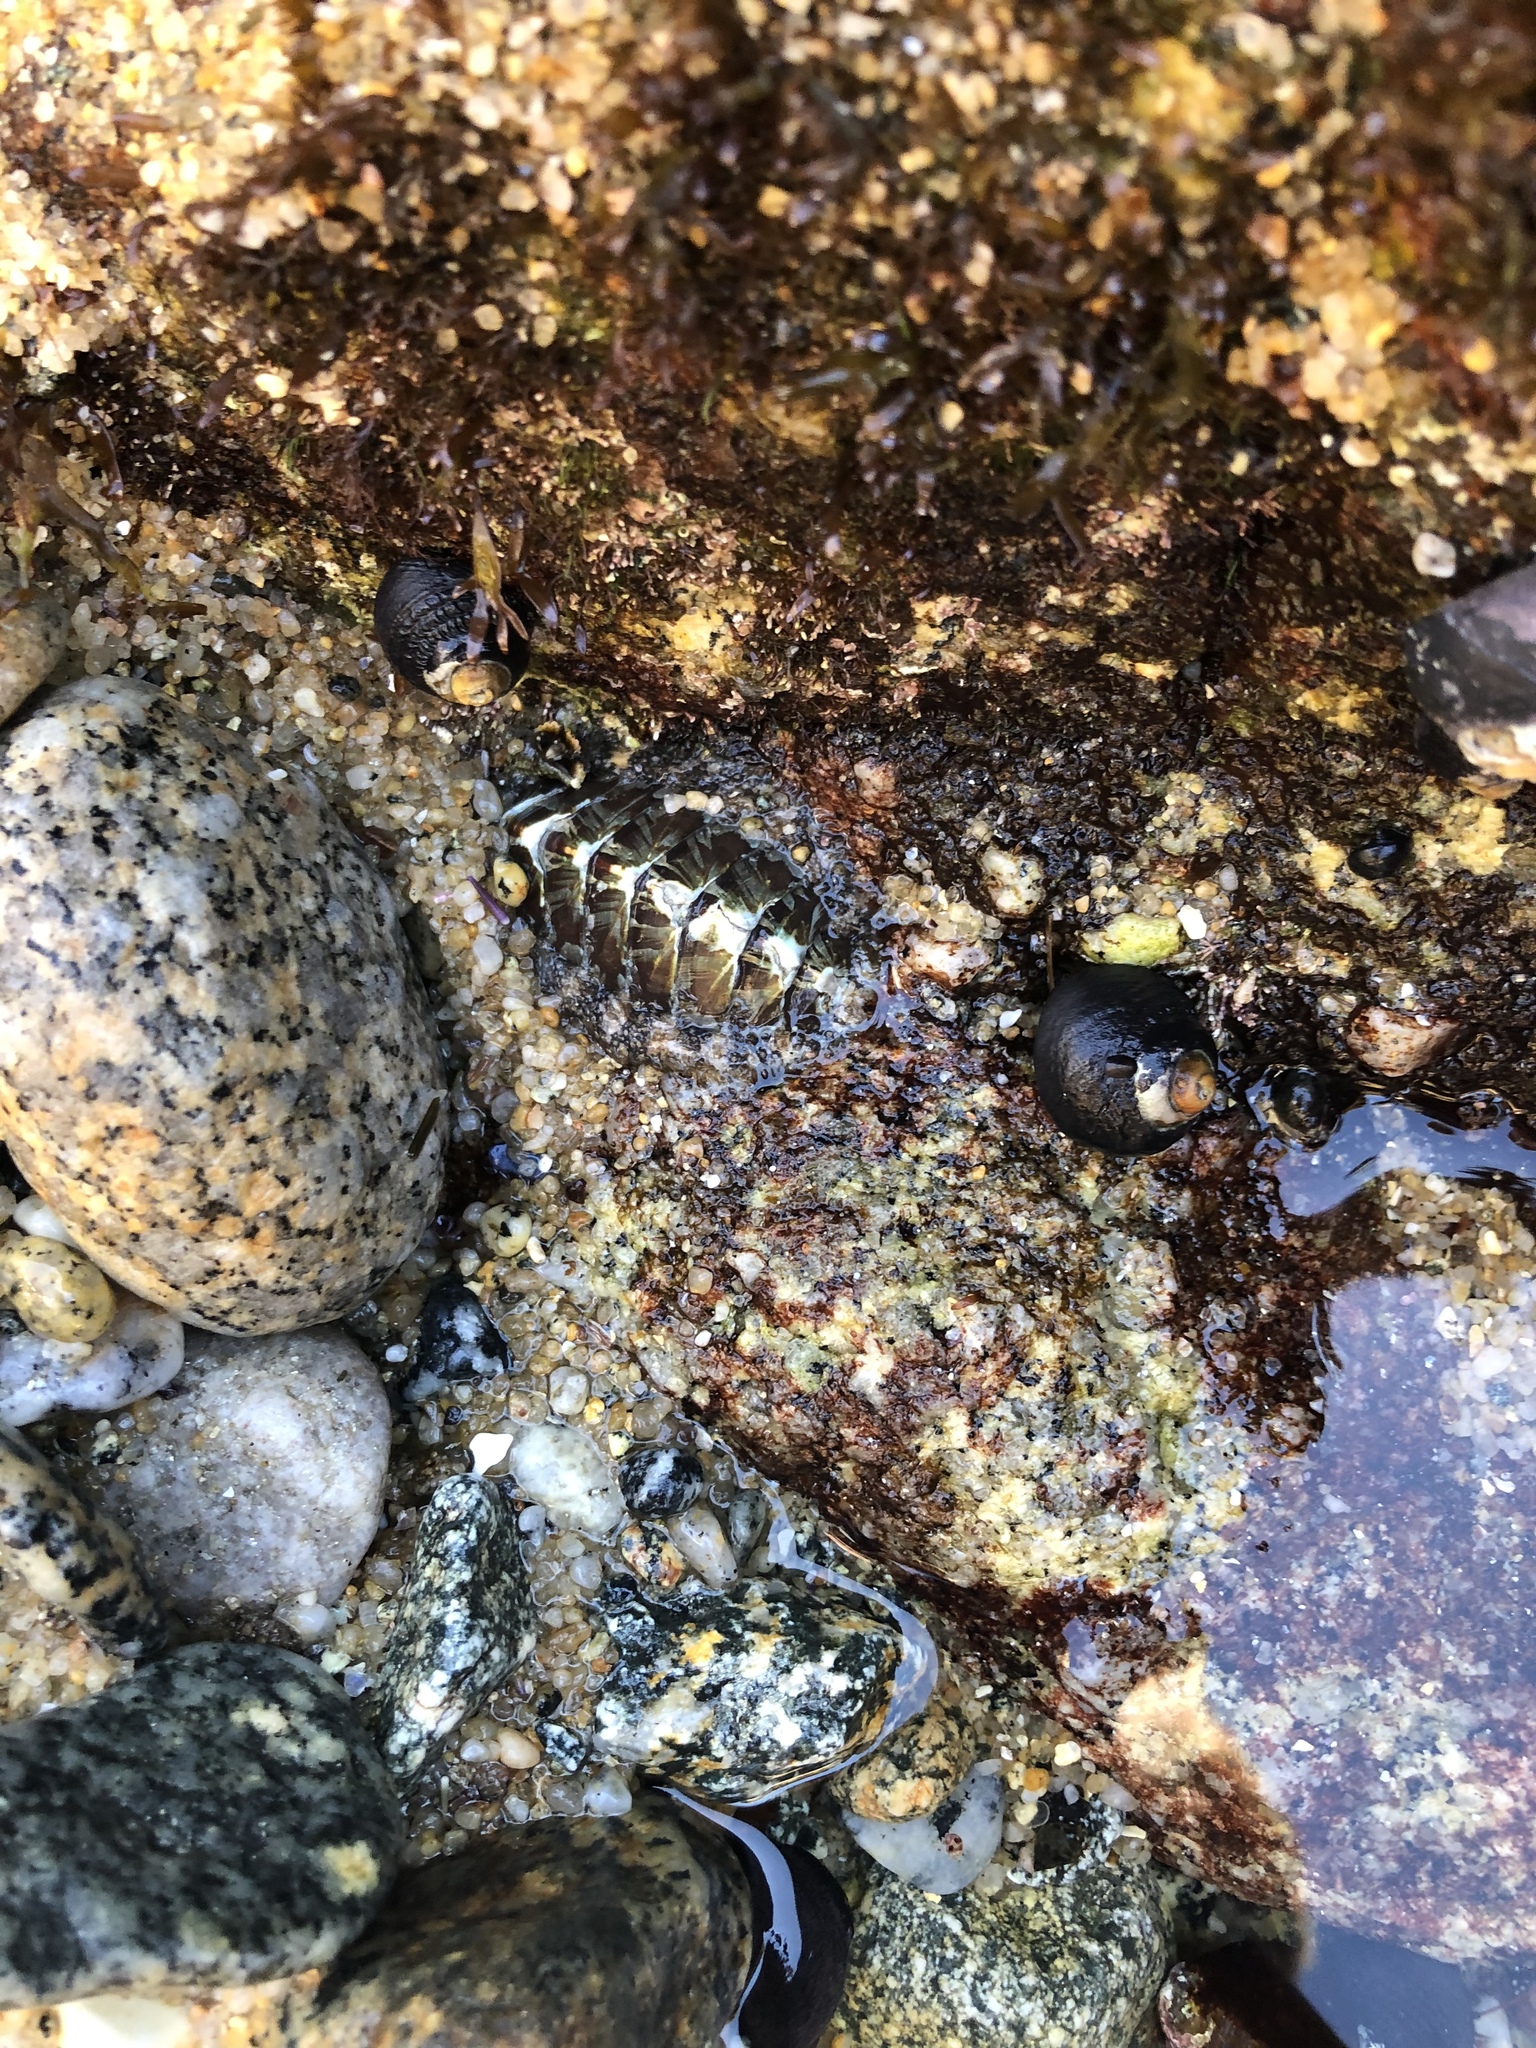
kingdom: Animalia
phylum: Mollusca
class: Polyplacophora
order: Chitonida
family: Mopaliidae
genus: Mopalia
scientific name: Mopalia lignosa
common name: Woody chiton
